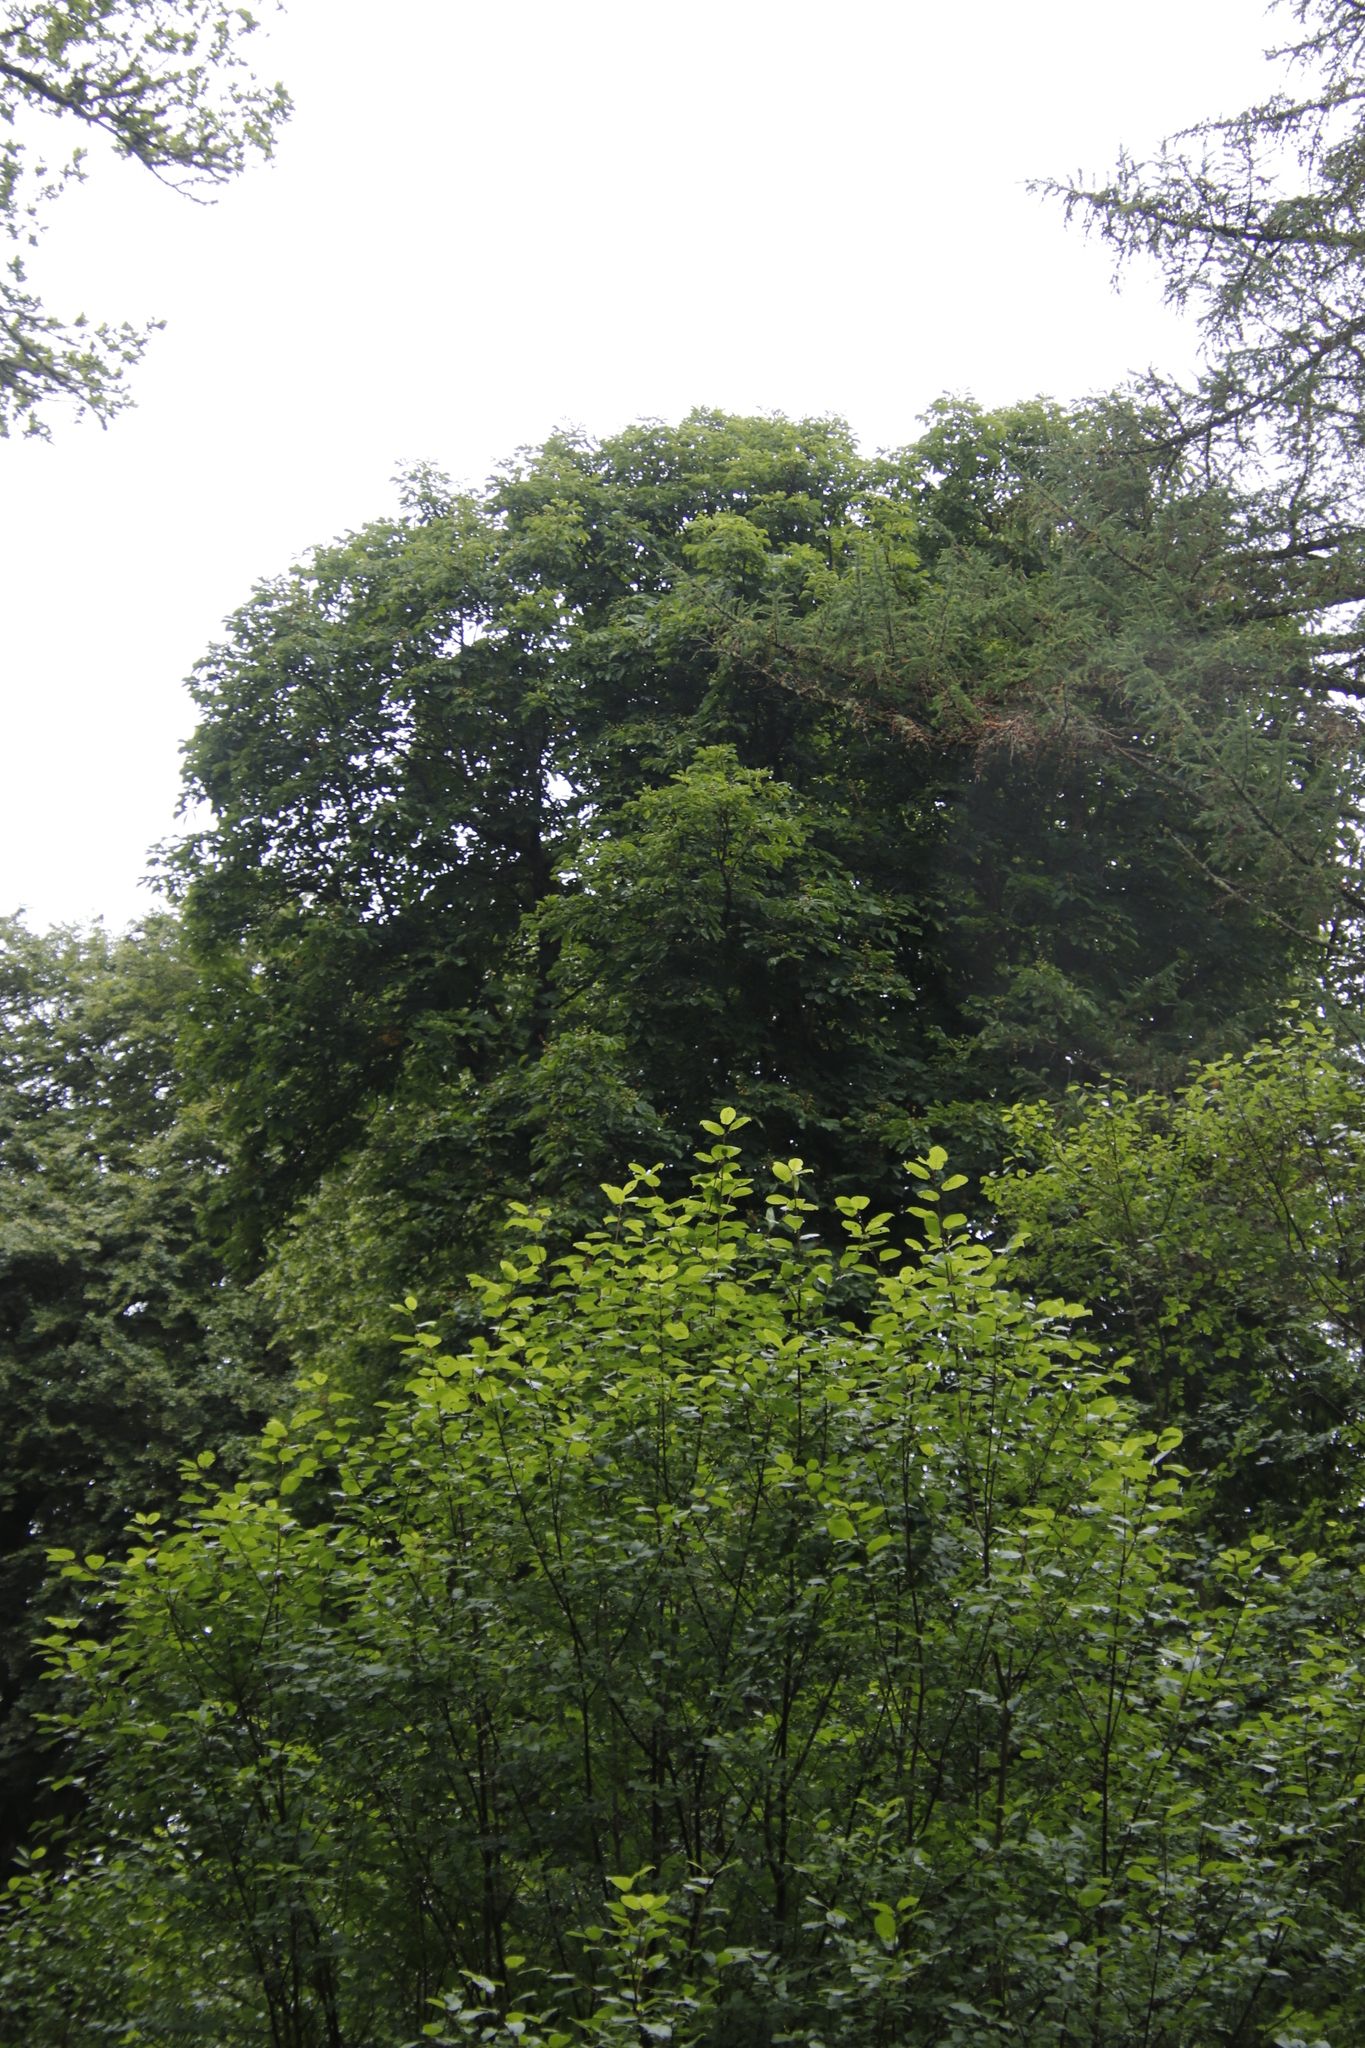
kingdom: Plantae
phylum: Tracheophyta
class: Magnoliopsida
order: Sapindales
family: Sapindaceae
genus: Aesculus
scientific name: Aesculus hippocastanum
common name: Horse-chestnut
